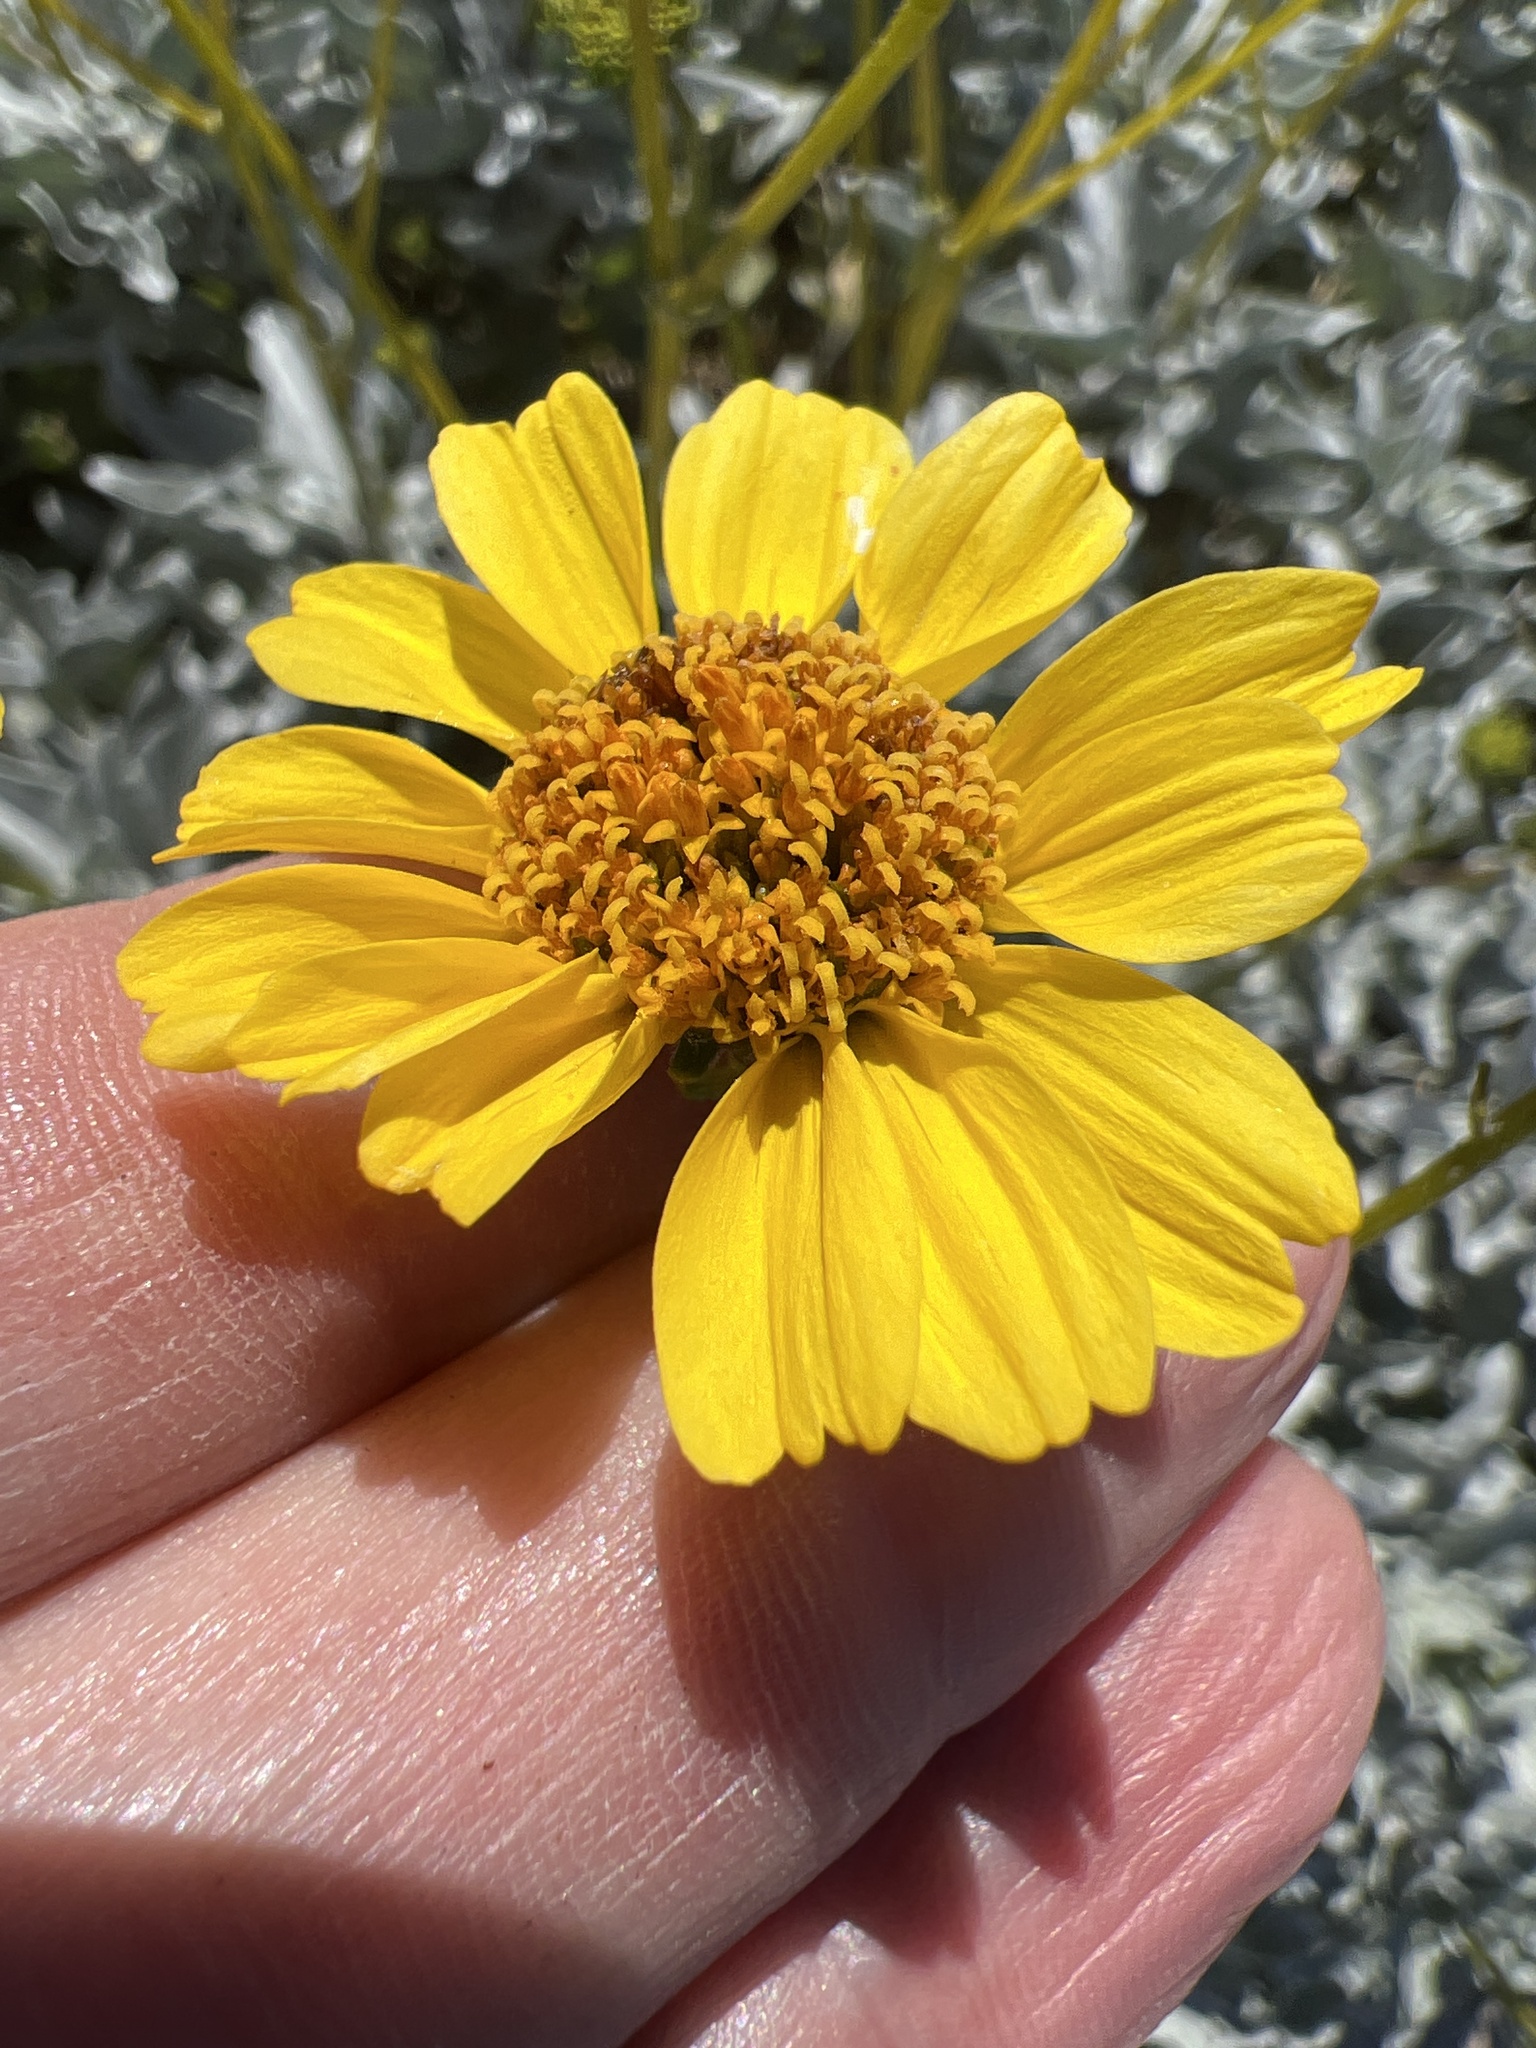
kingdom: Plantae
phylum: Tracheophyta
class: Magnoliopsida
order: Asterales
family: Asteraceae
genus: Encelia
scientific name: Encelia farinosa
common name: Brittlebush
